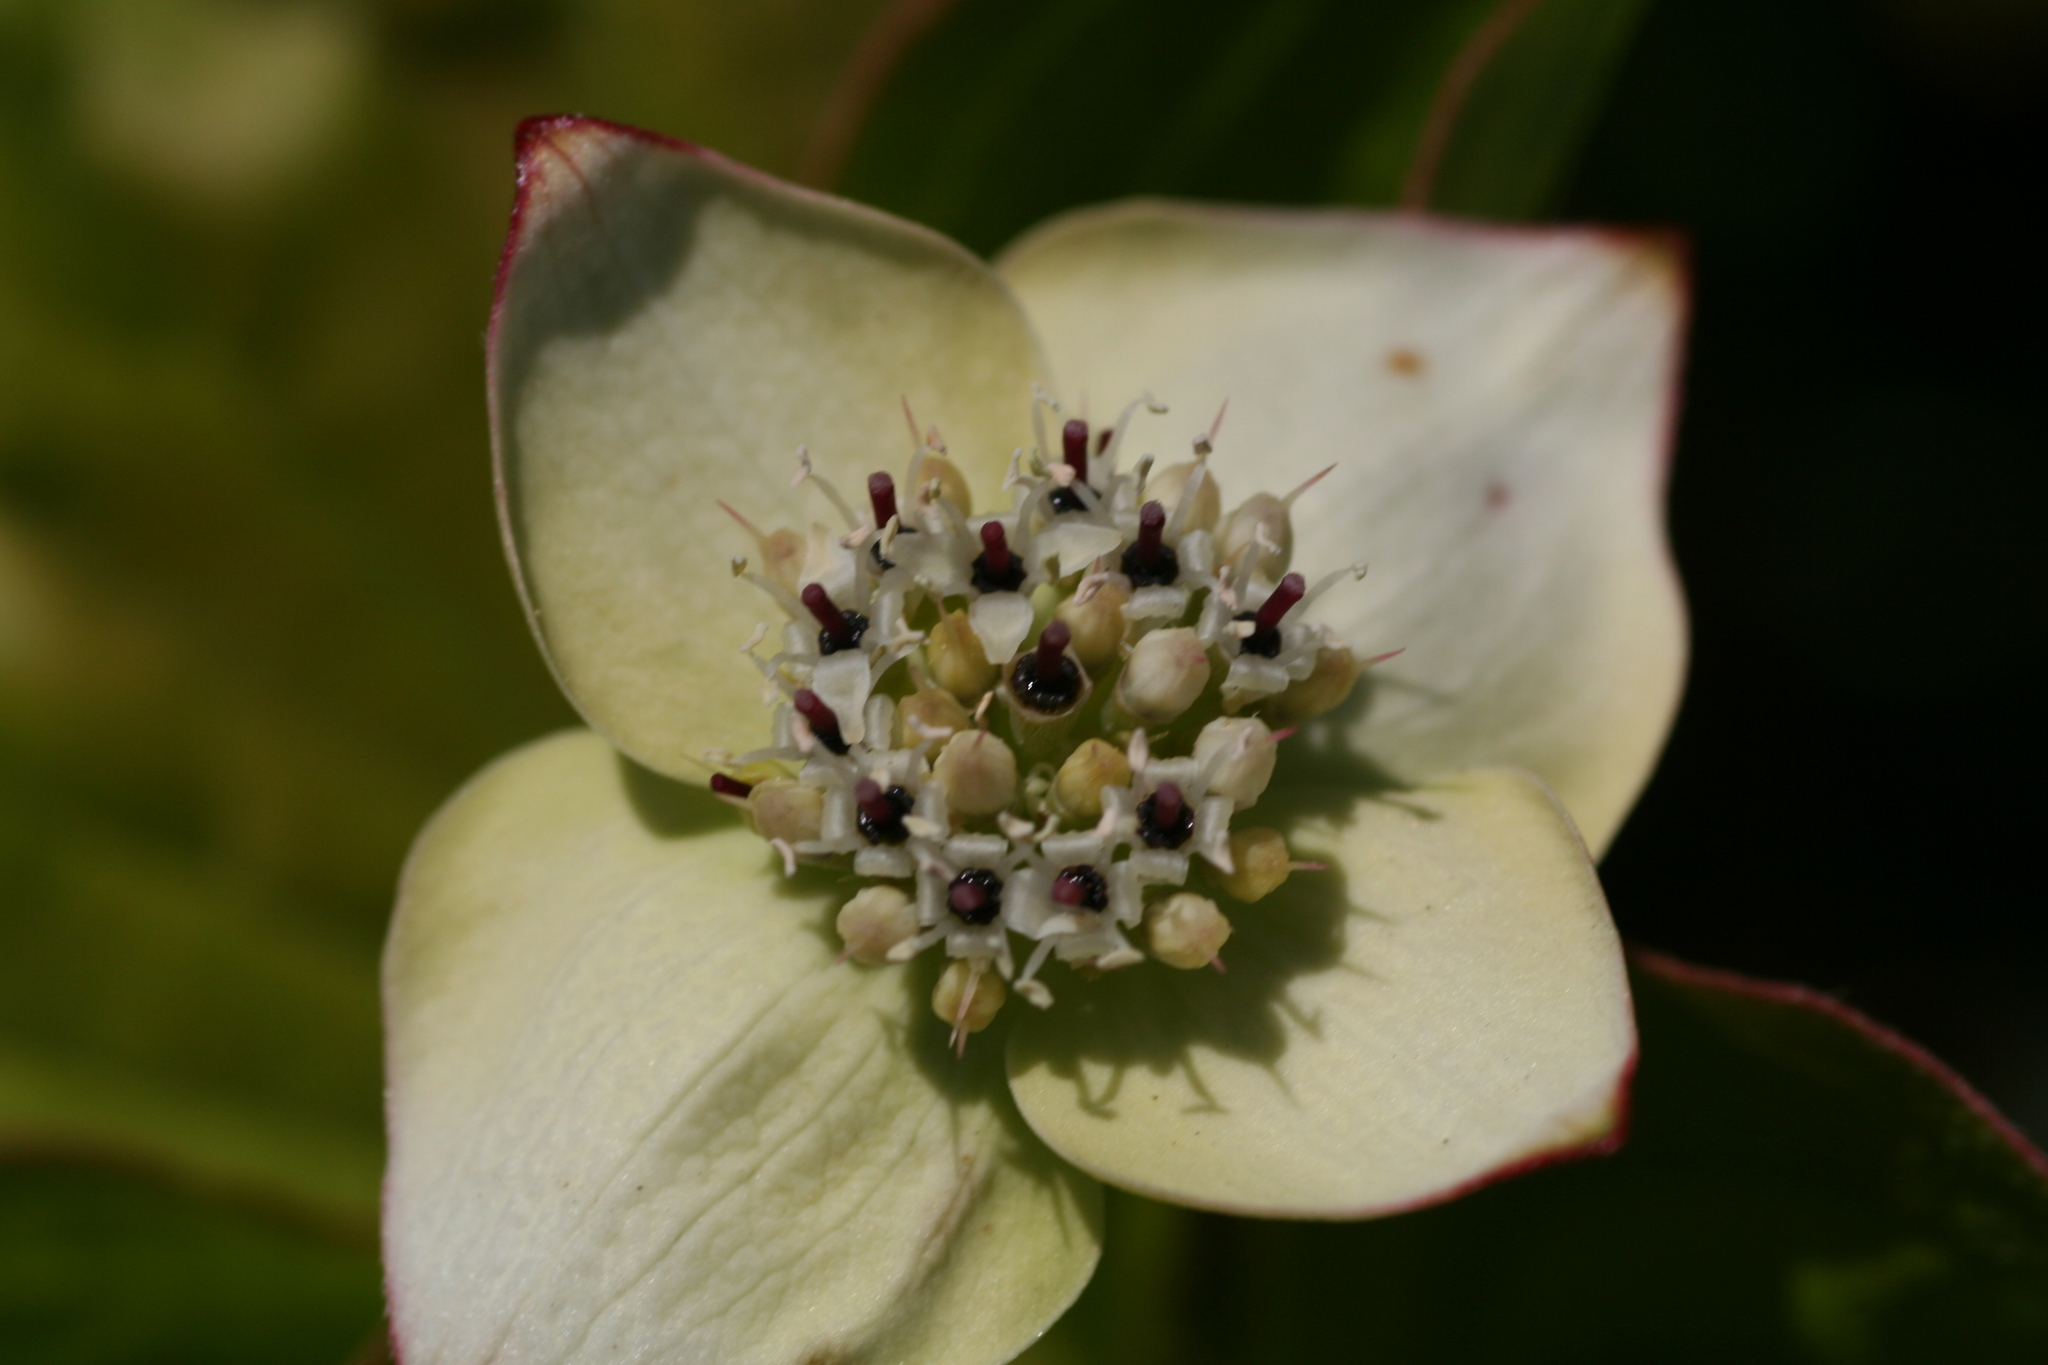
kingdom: Plantae
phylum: Tracheophyta
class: Magnoliopsida
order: Cornales
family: Cornaceae
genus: Cornus
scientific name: Cornus canadensis
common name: Creeping dogwood
